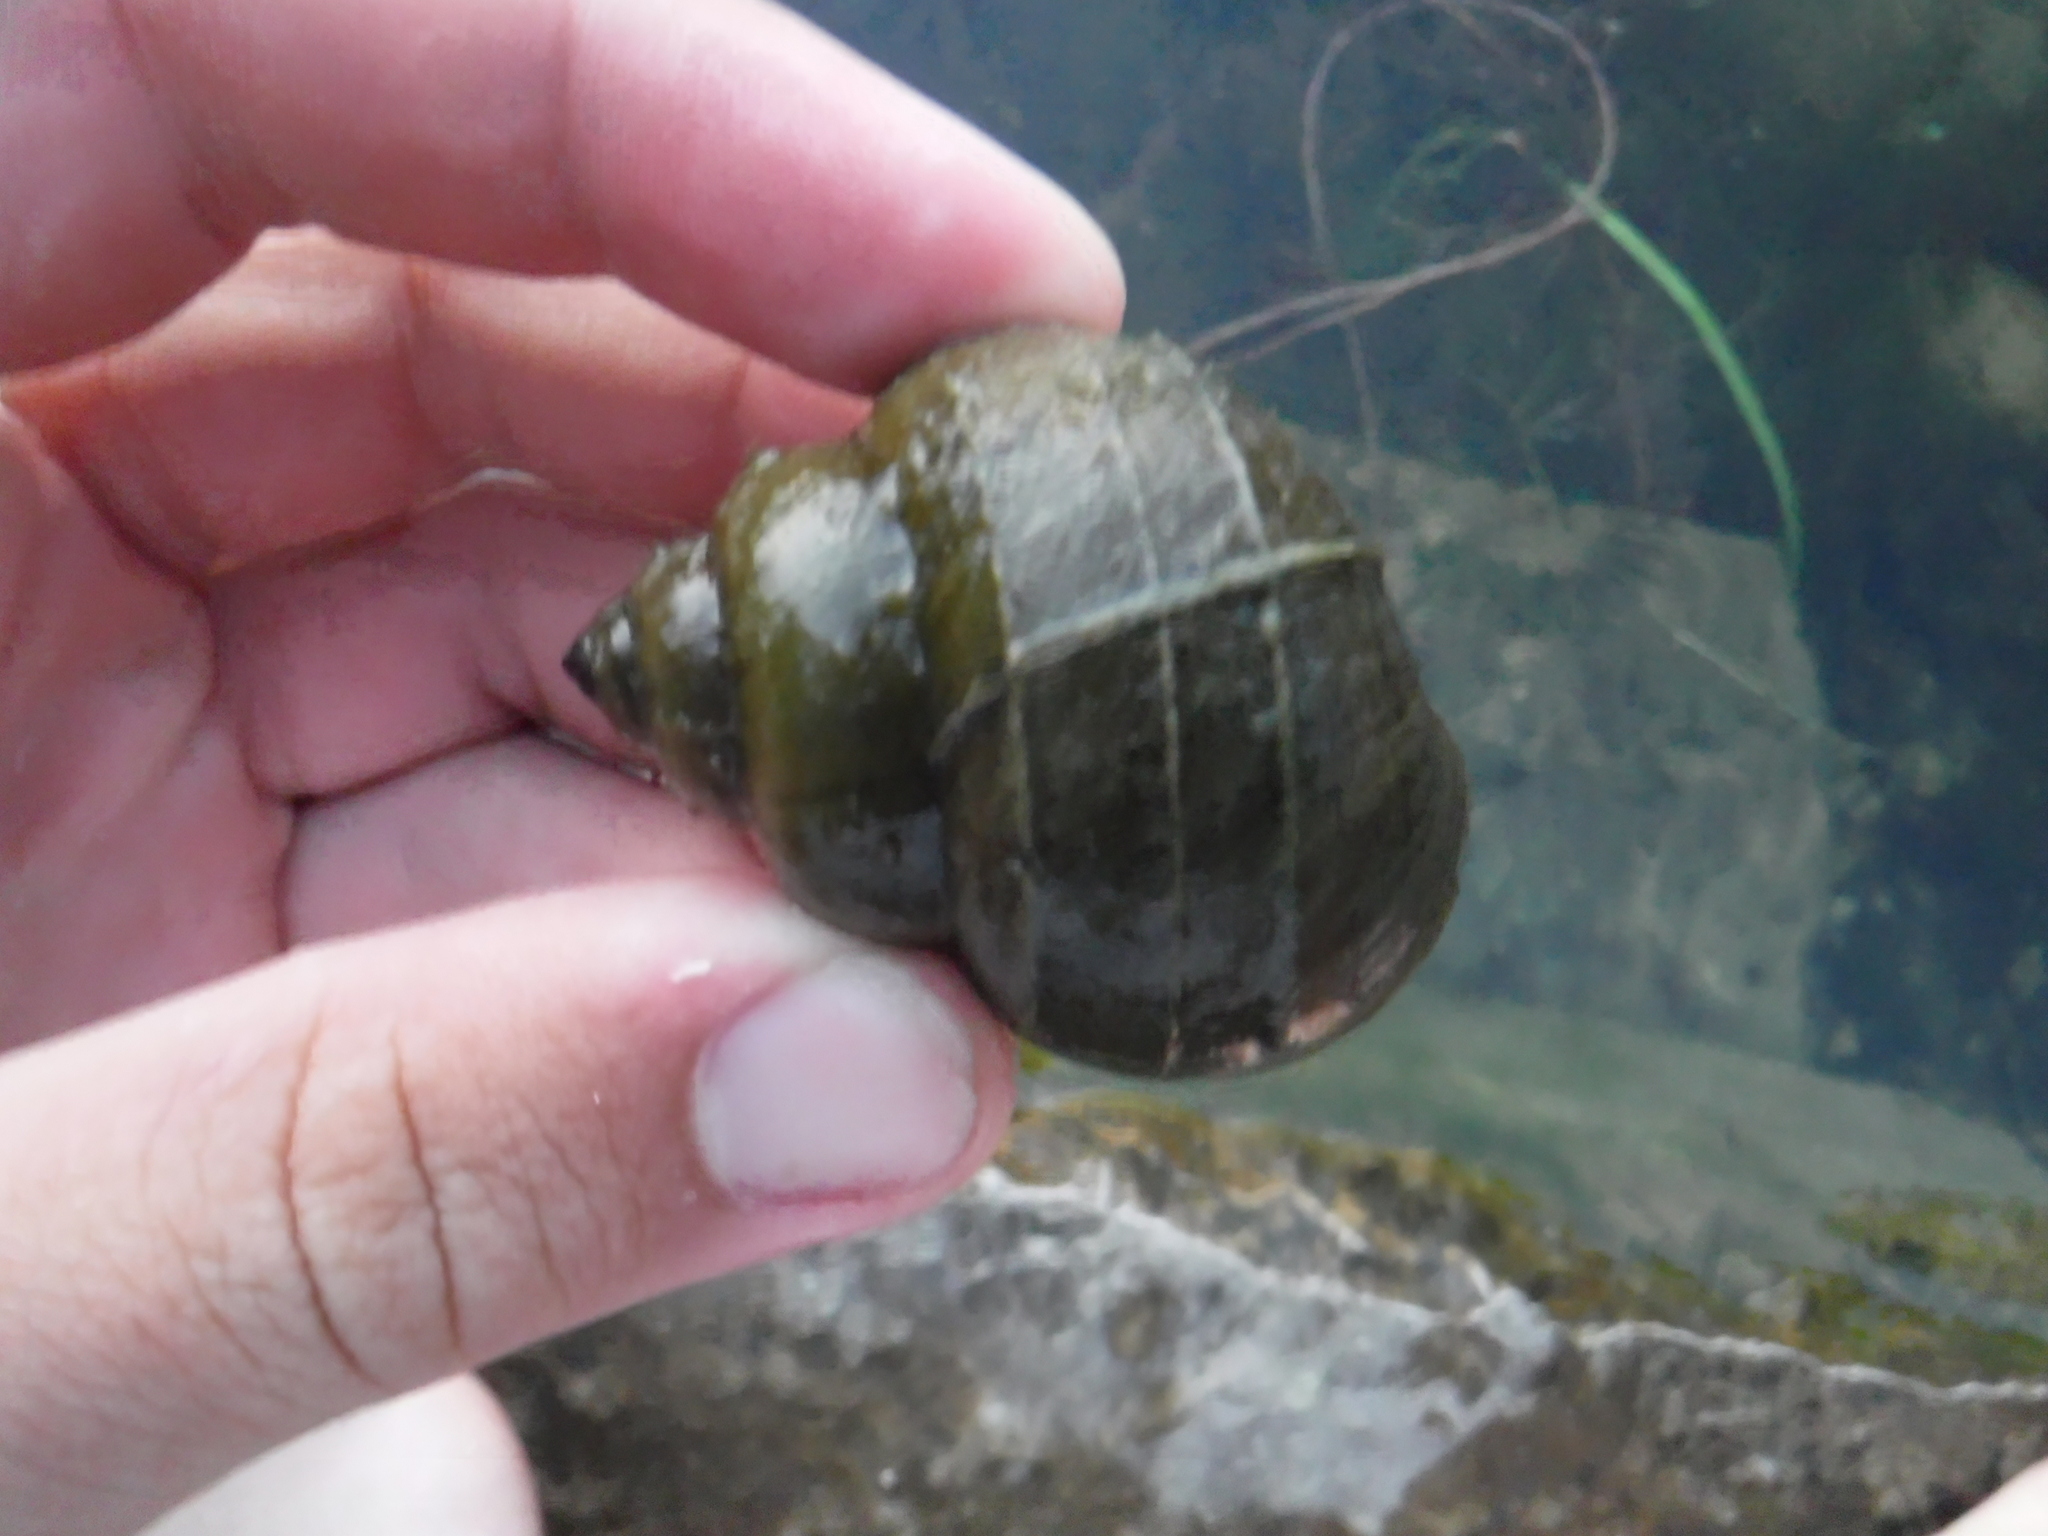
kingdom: Animalia
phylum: Mollusca
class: Gastropoda
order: Architaenioglossa
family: Viviparidae
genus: Cipangopaludina
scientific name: Cipangopaludina chinensis
